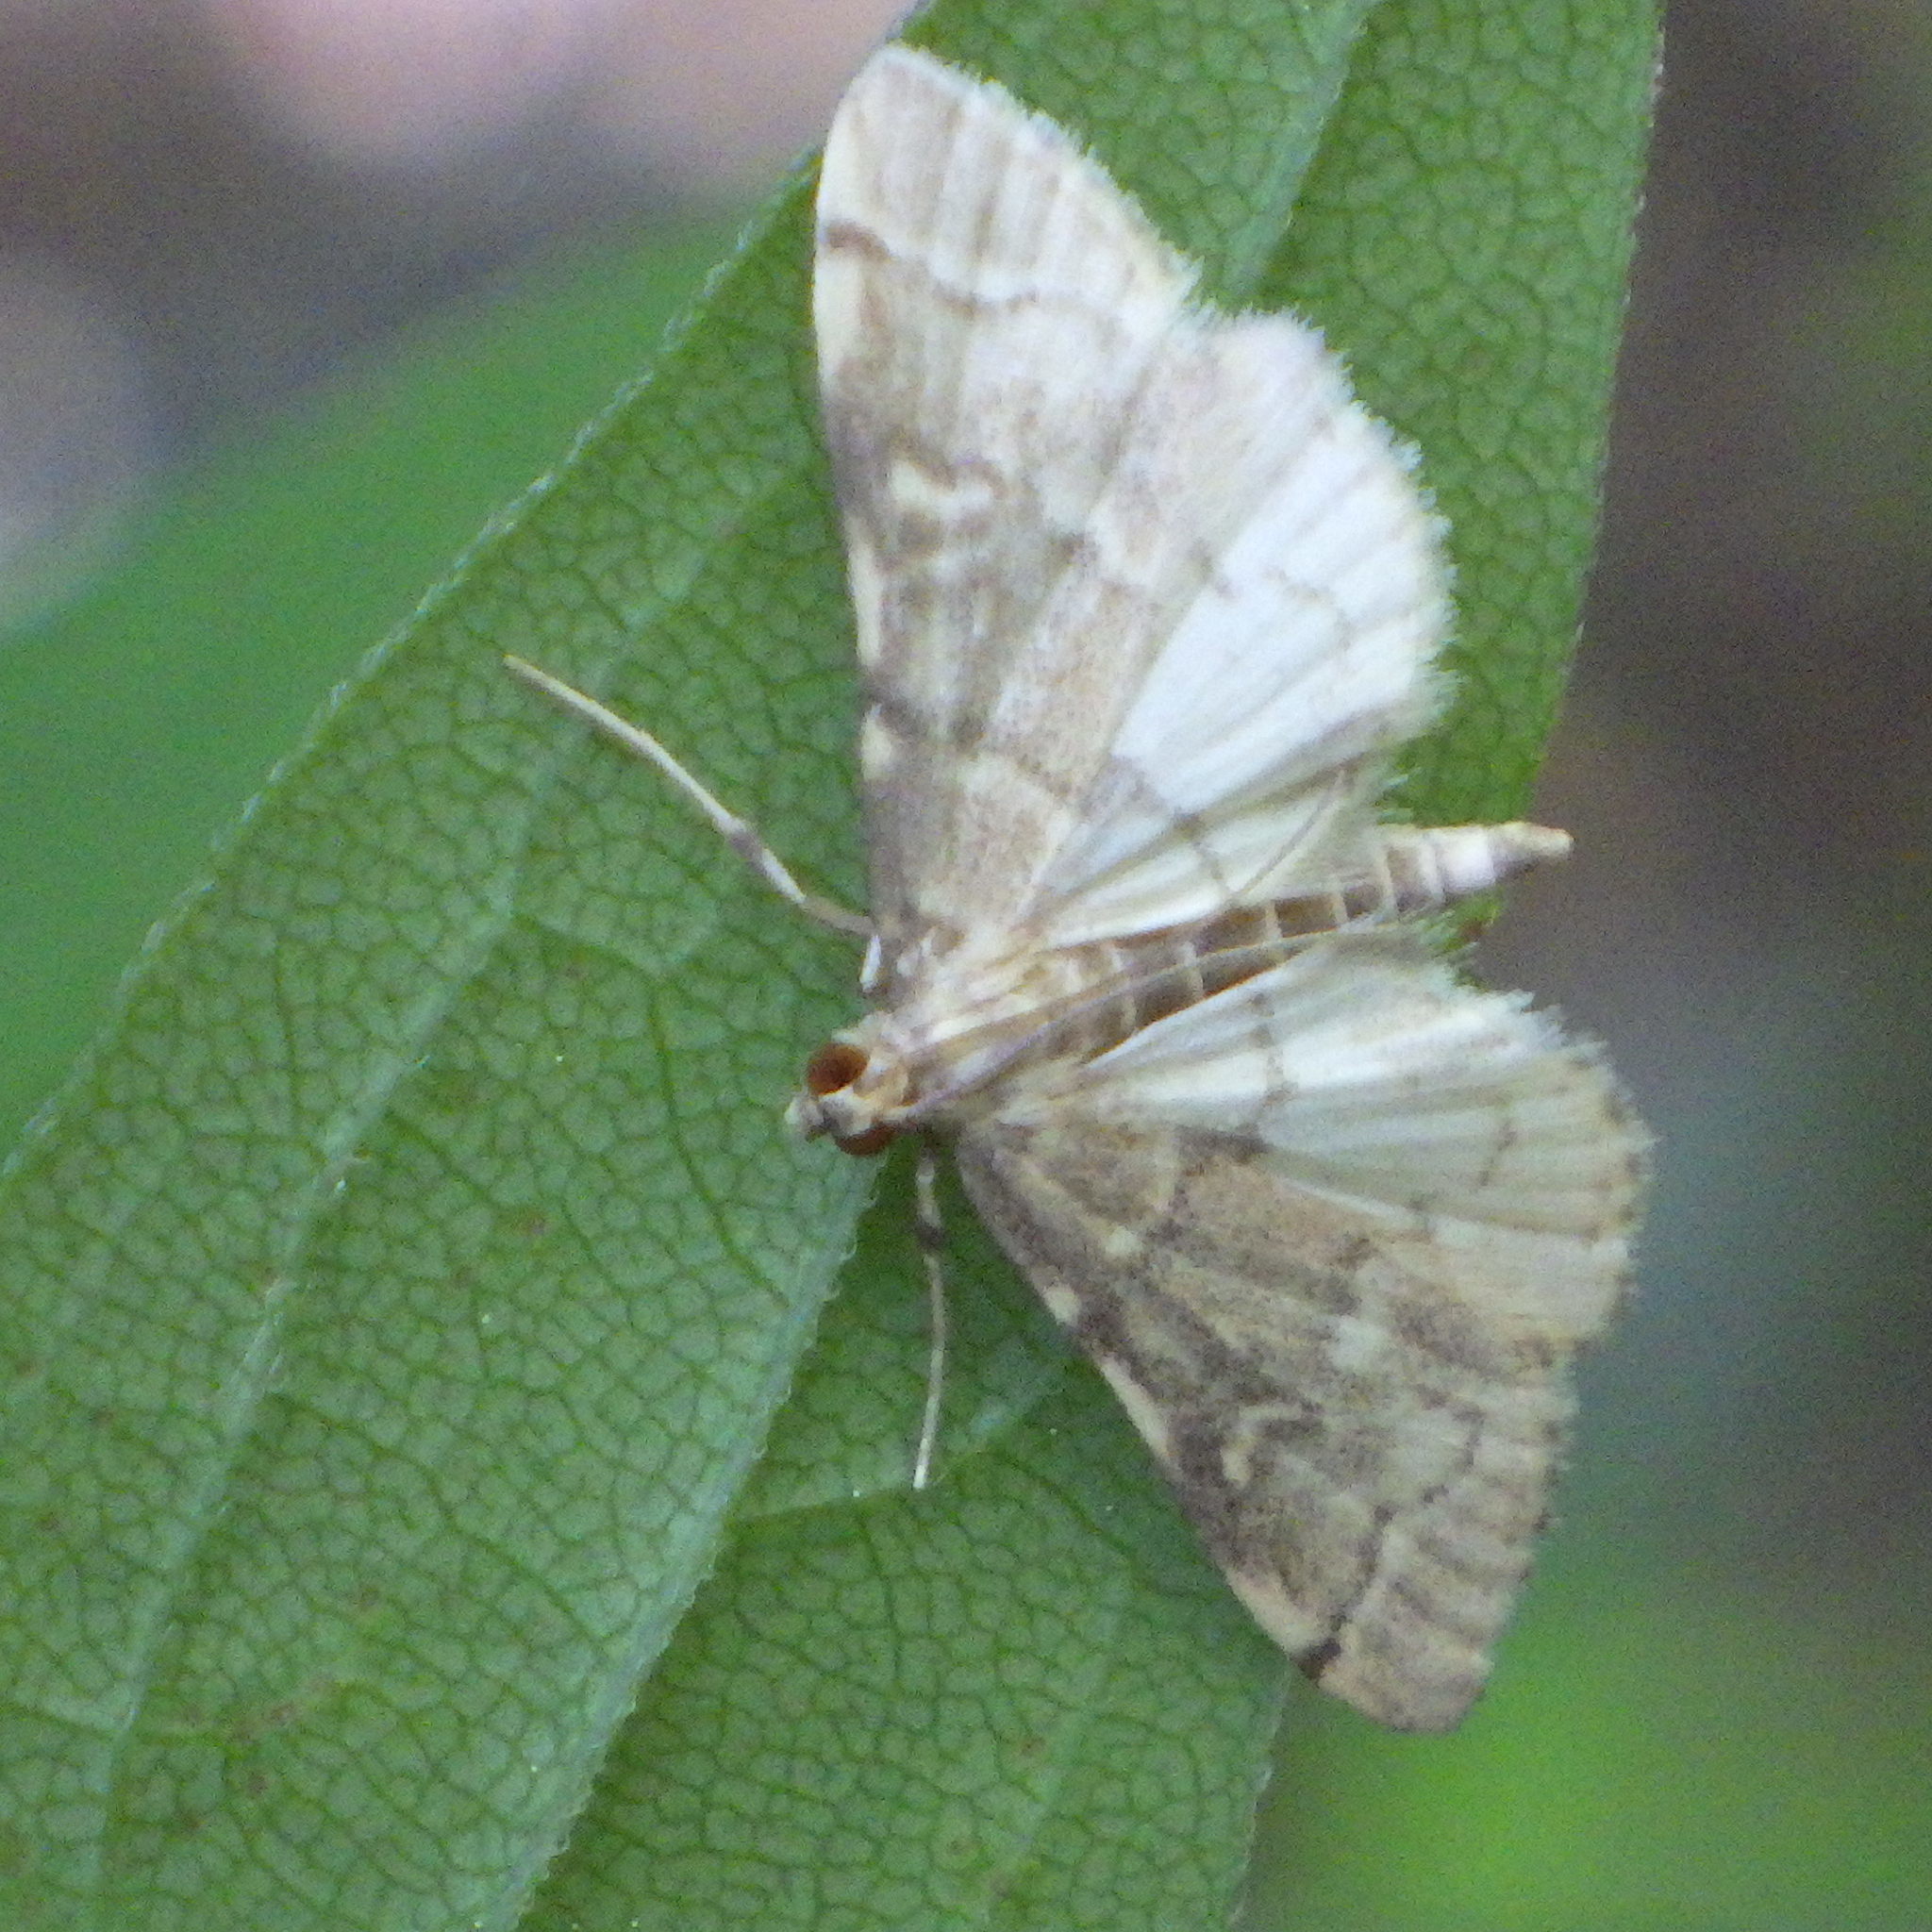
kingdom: Animalia
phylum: Arthropoda
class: Insecta
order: Lepidoptera
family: Crambidae
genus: Anageshna
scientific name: Anageshna primordialis
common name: Yellow-spotted webworm moth
